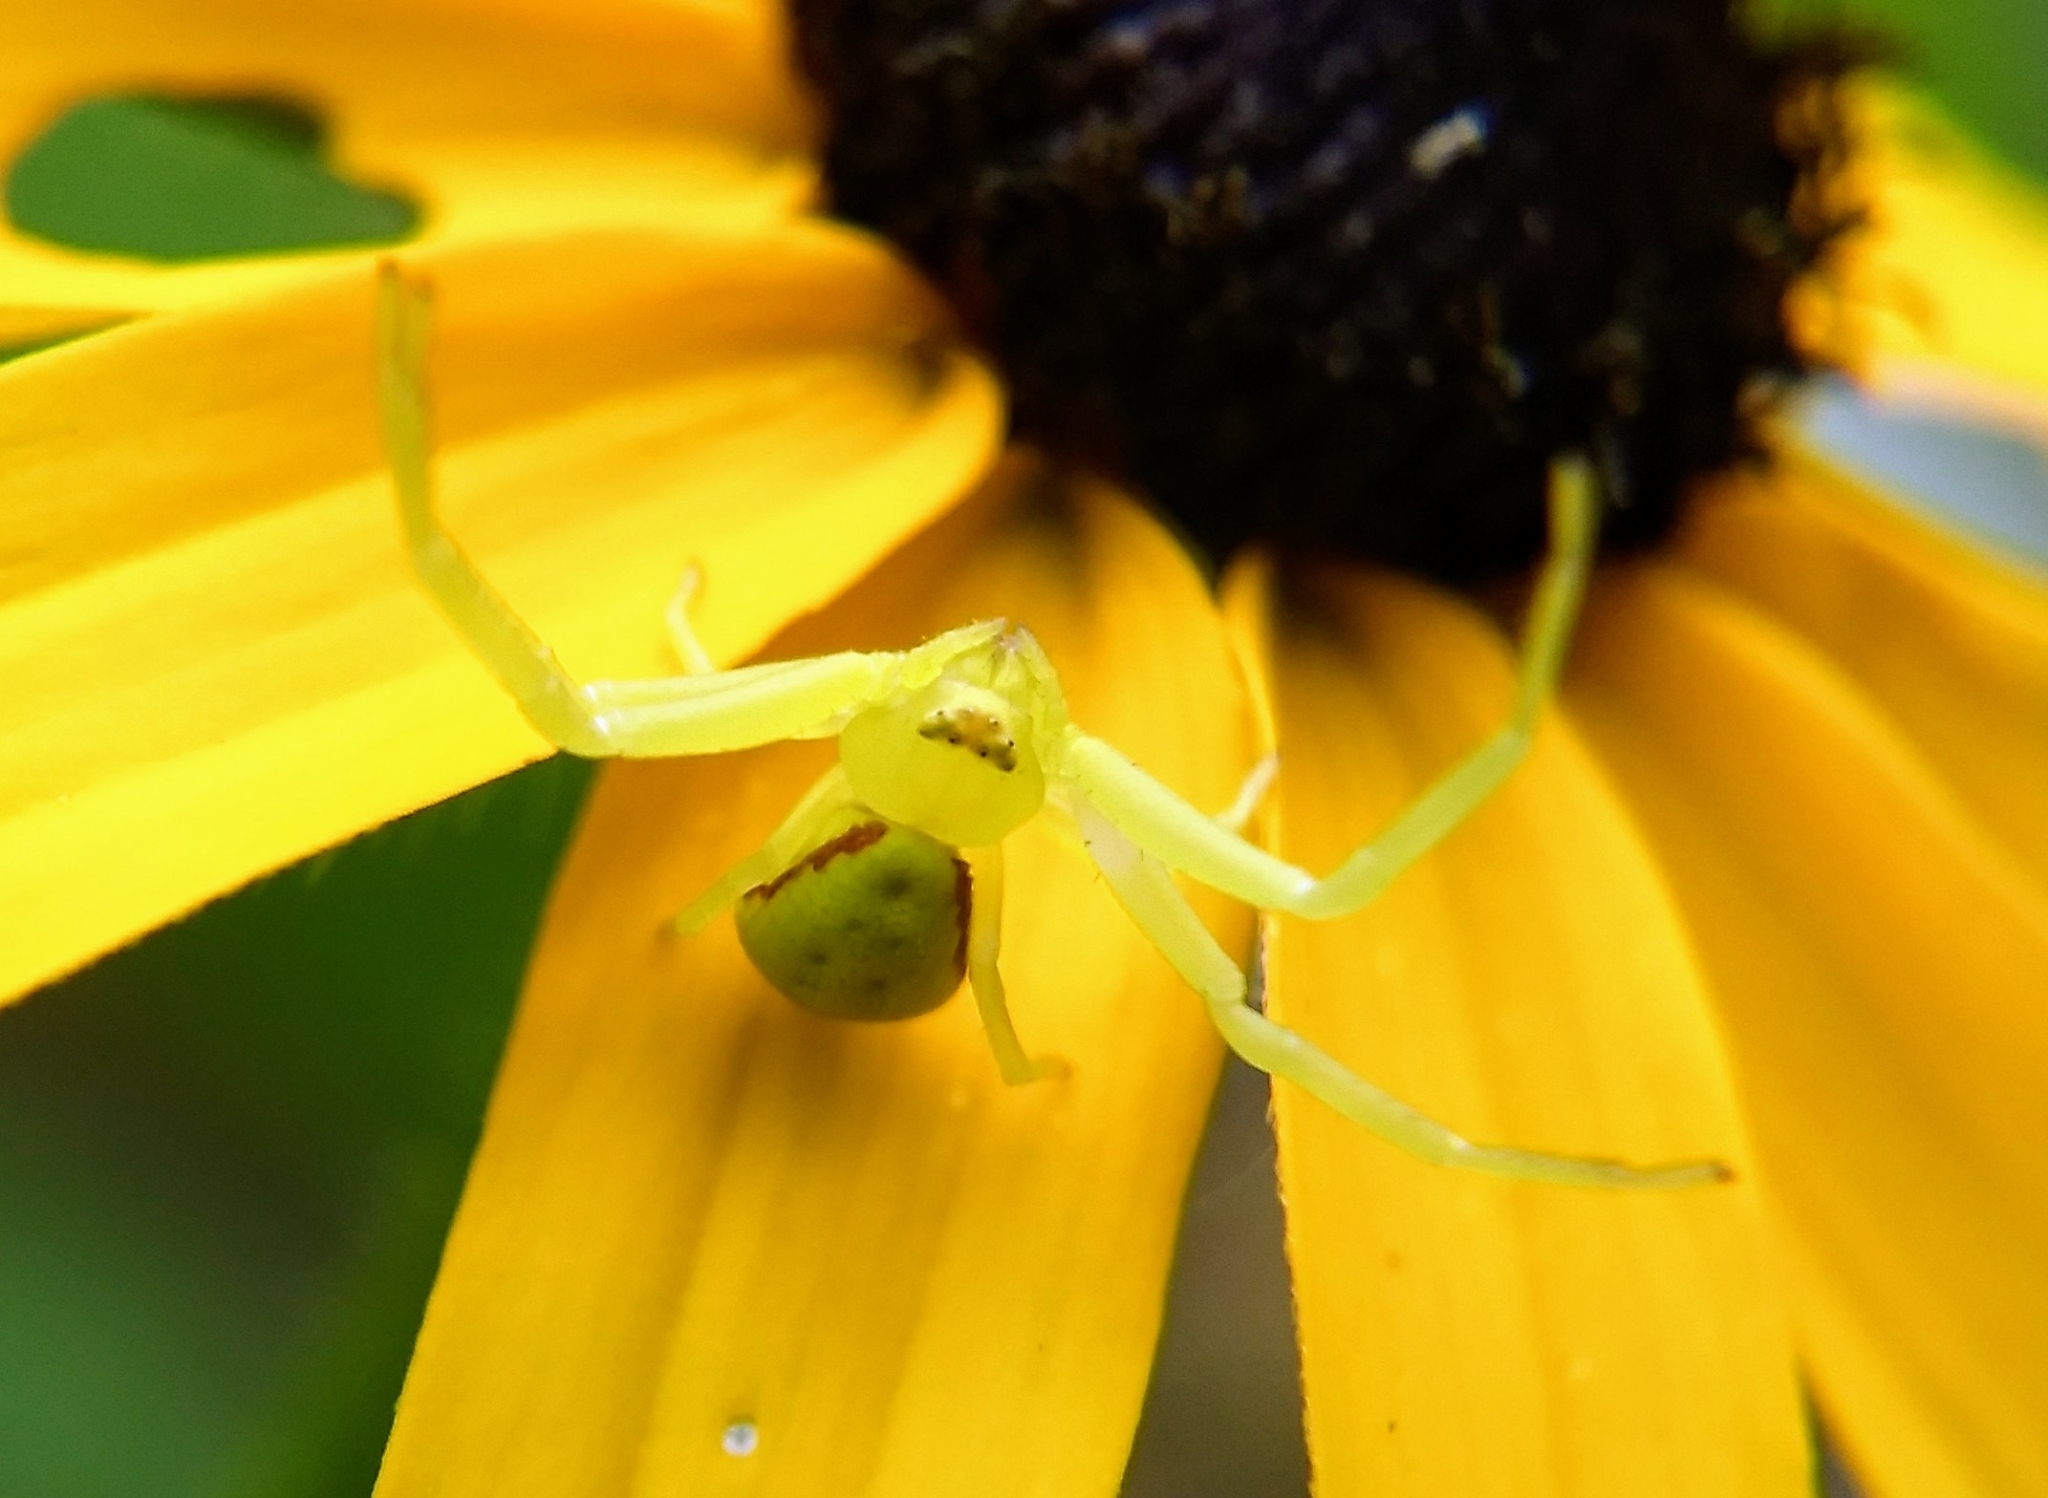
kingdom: Animalia
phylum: Arthropoda
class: Arachnida
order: Araneae
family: Thomisidae
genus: Misumessus
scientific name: Misumessus oblongus
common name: American green crab spider
